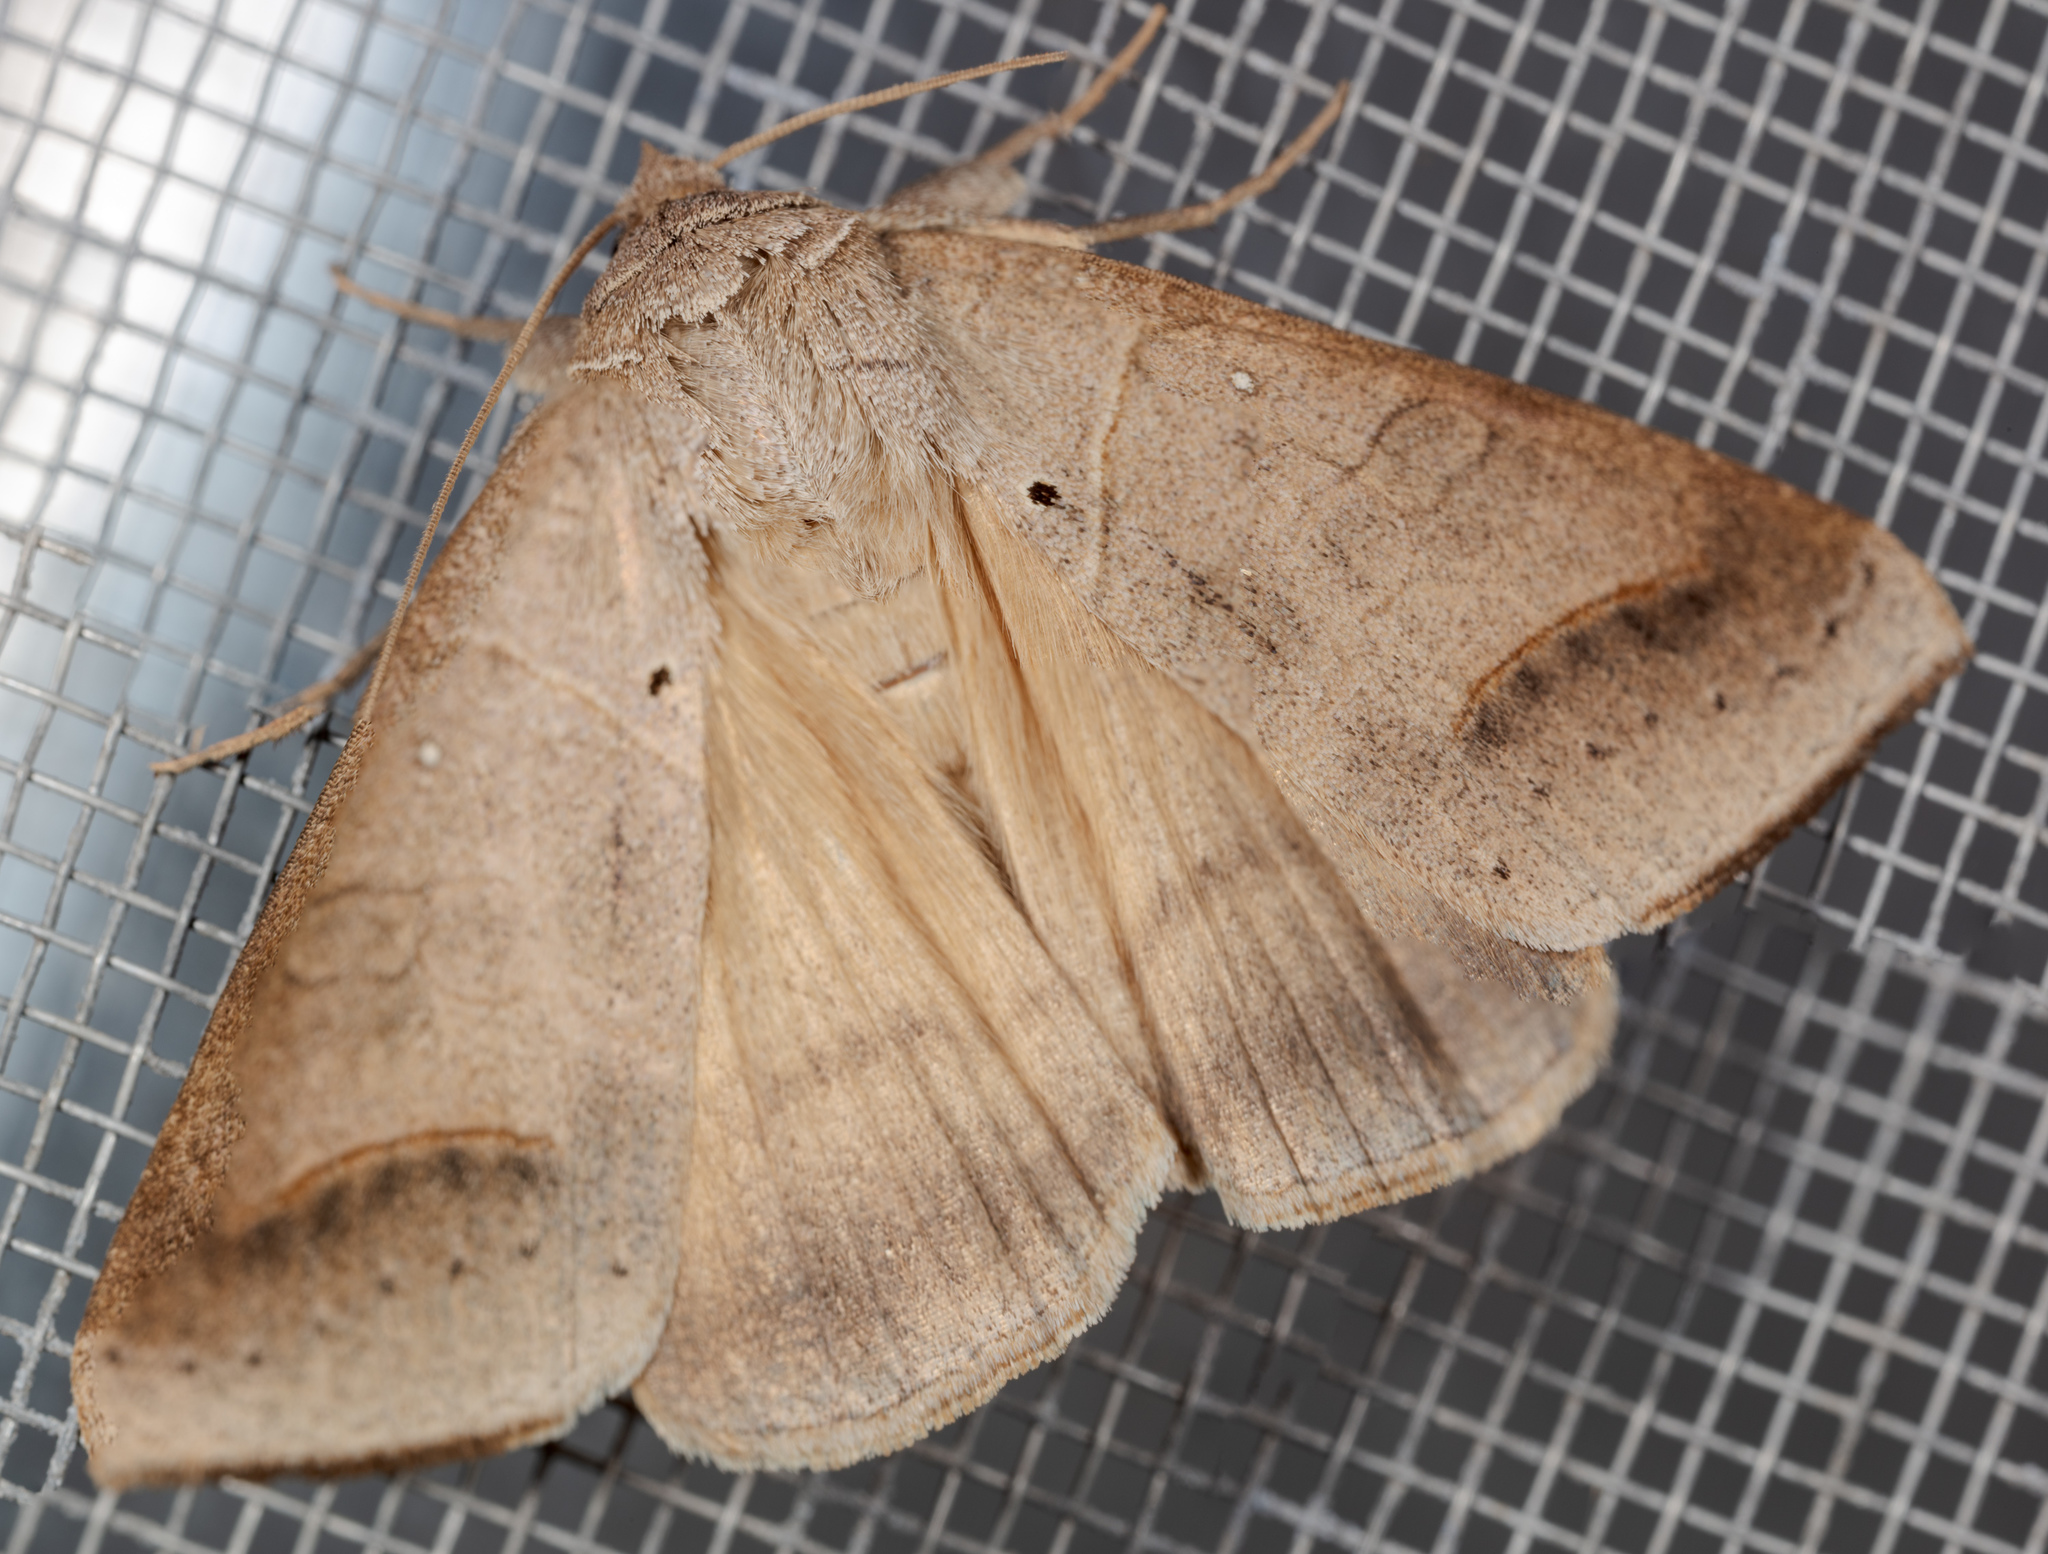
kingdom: Animalia
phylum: Arthropoda
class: Insecta
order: Lepidoptera
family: Erebidae
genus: Mocis
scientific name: Mocis marcida
